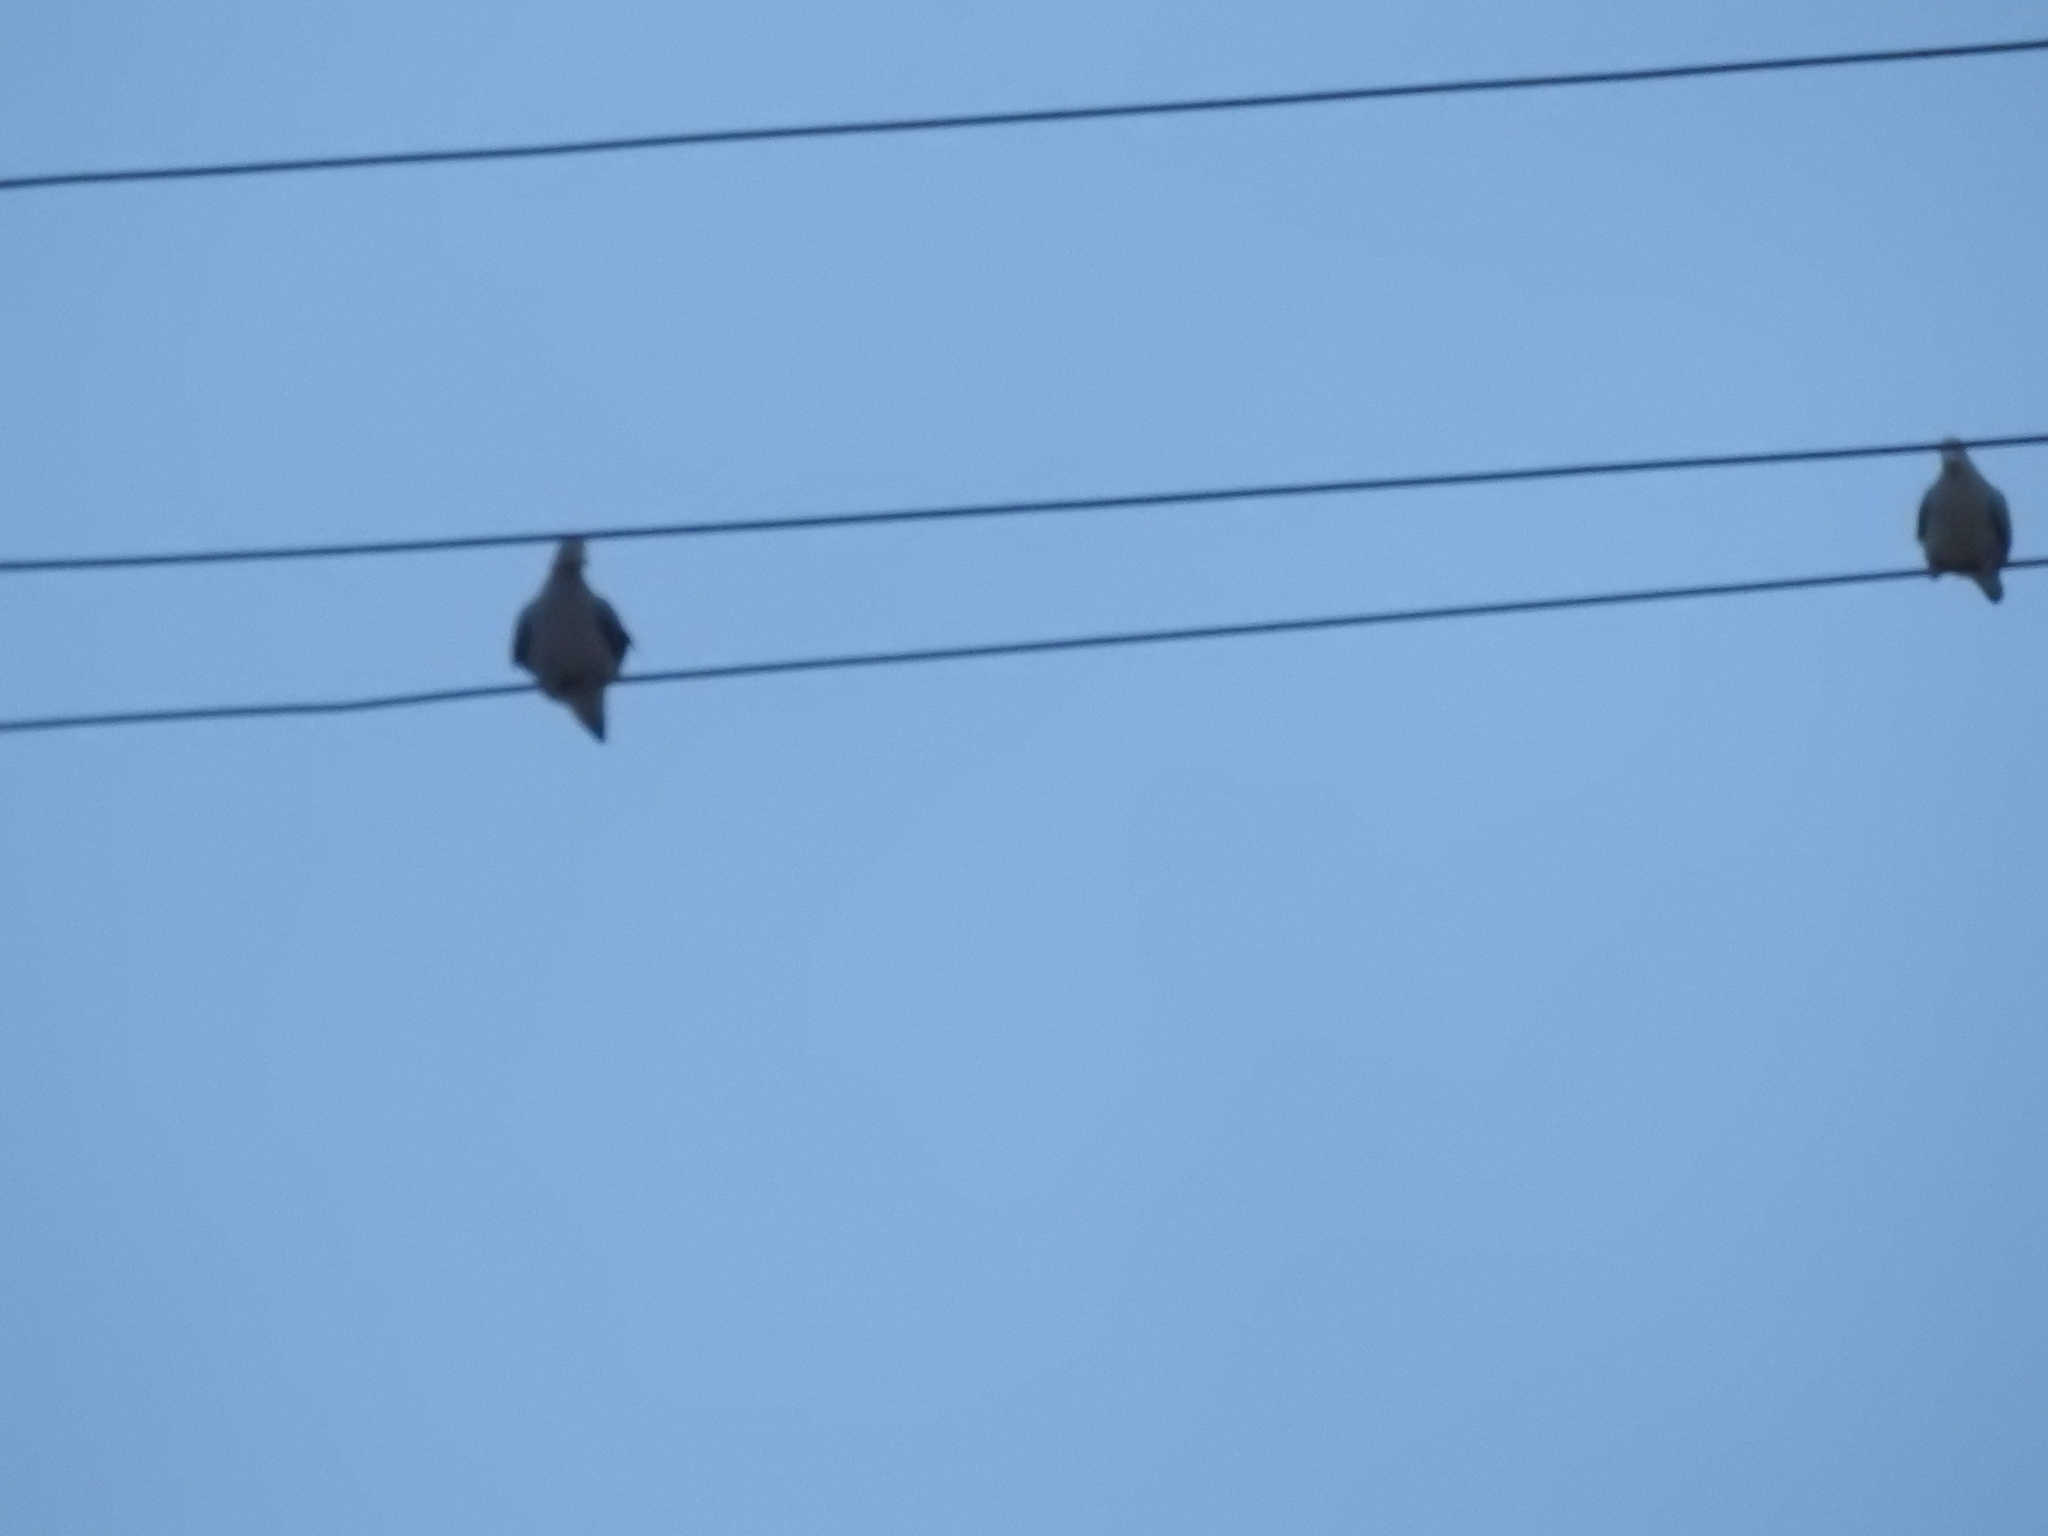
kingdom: Animalia
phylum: Chordata
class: Aves
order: Columbiformes
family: Columbidae
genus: Zenaida
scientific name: Zenaida macroura
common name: Mourning dove
